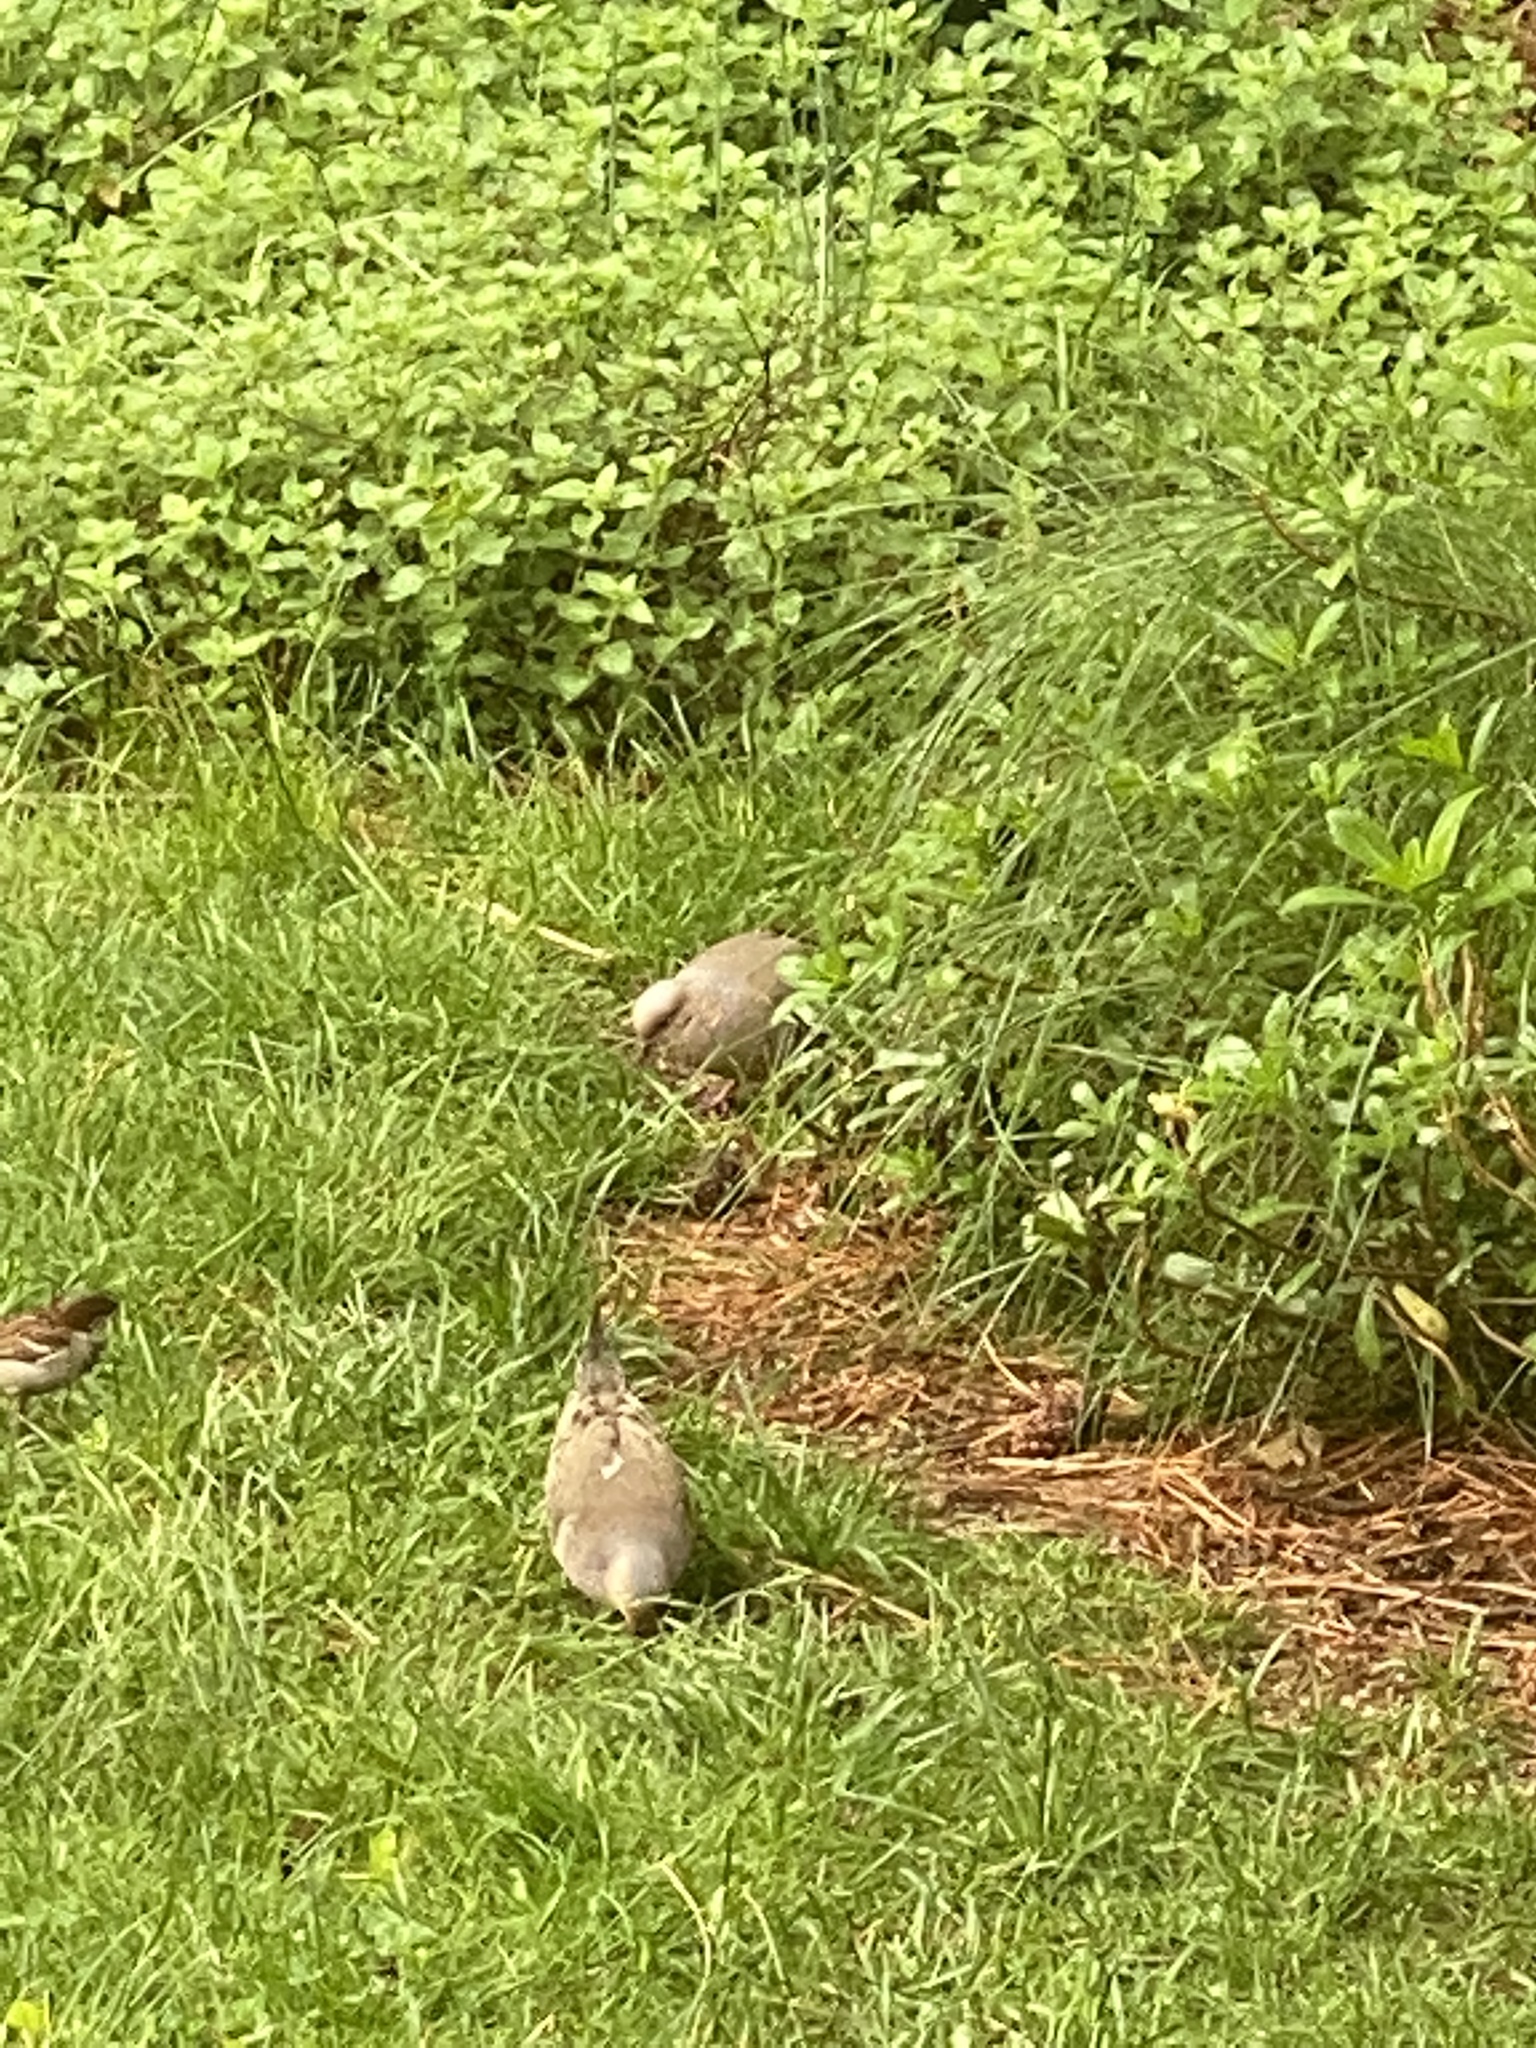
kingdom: Animalia
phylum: Chordata
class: Aves
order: Columbiformes
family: Columbidae
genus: Zenaida
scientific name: Zenaida macroura
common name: Mourning dove
